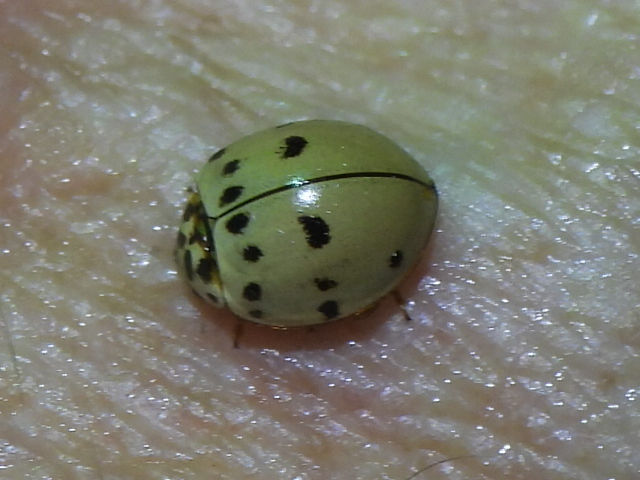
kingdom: Animalia
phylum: Arthropoda
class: Insecta
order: Coleoptera
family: Coccinellidae
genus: Olla
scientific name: Olla v-nigrum
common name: Ashy gray lady beetle
